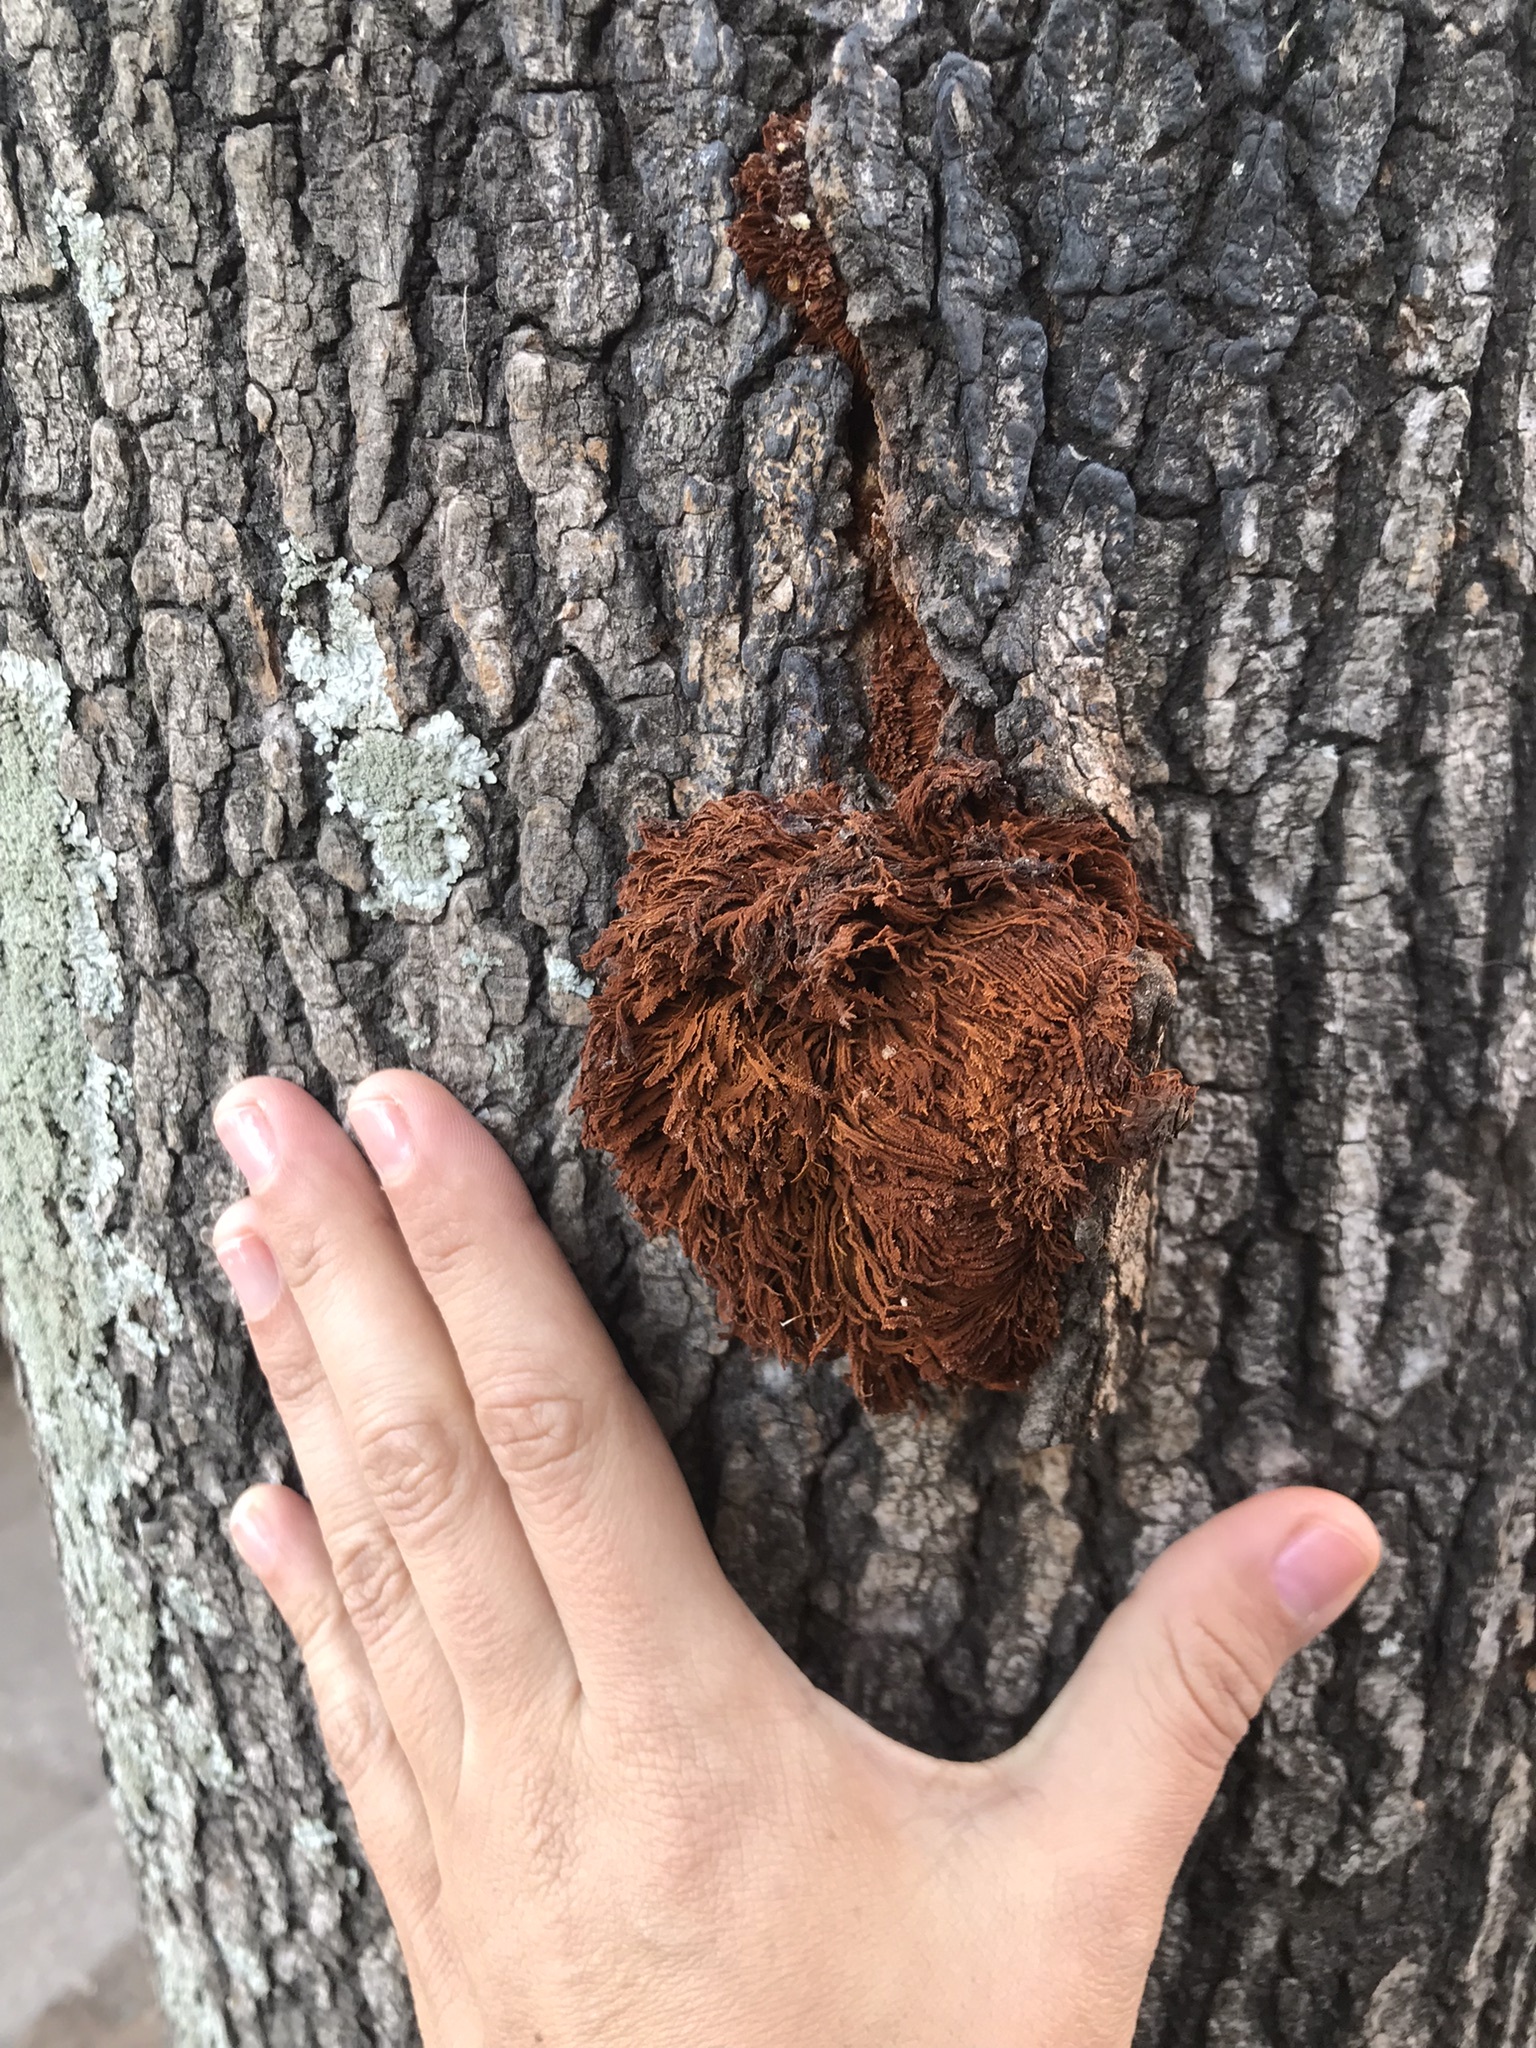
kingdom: Fungi
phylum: Basidiomycota
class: Agaricomycetes
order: Hymenochaetales
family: Hymenochaetaceae
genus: Inonotus
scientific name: Inonotus rickii
